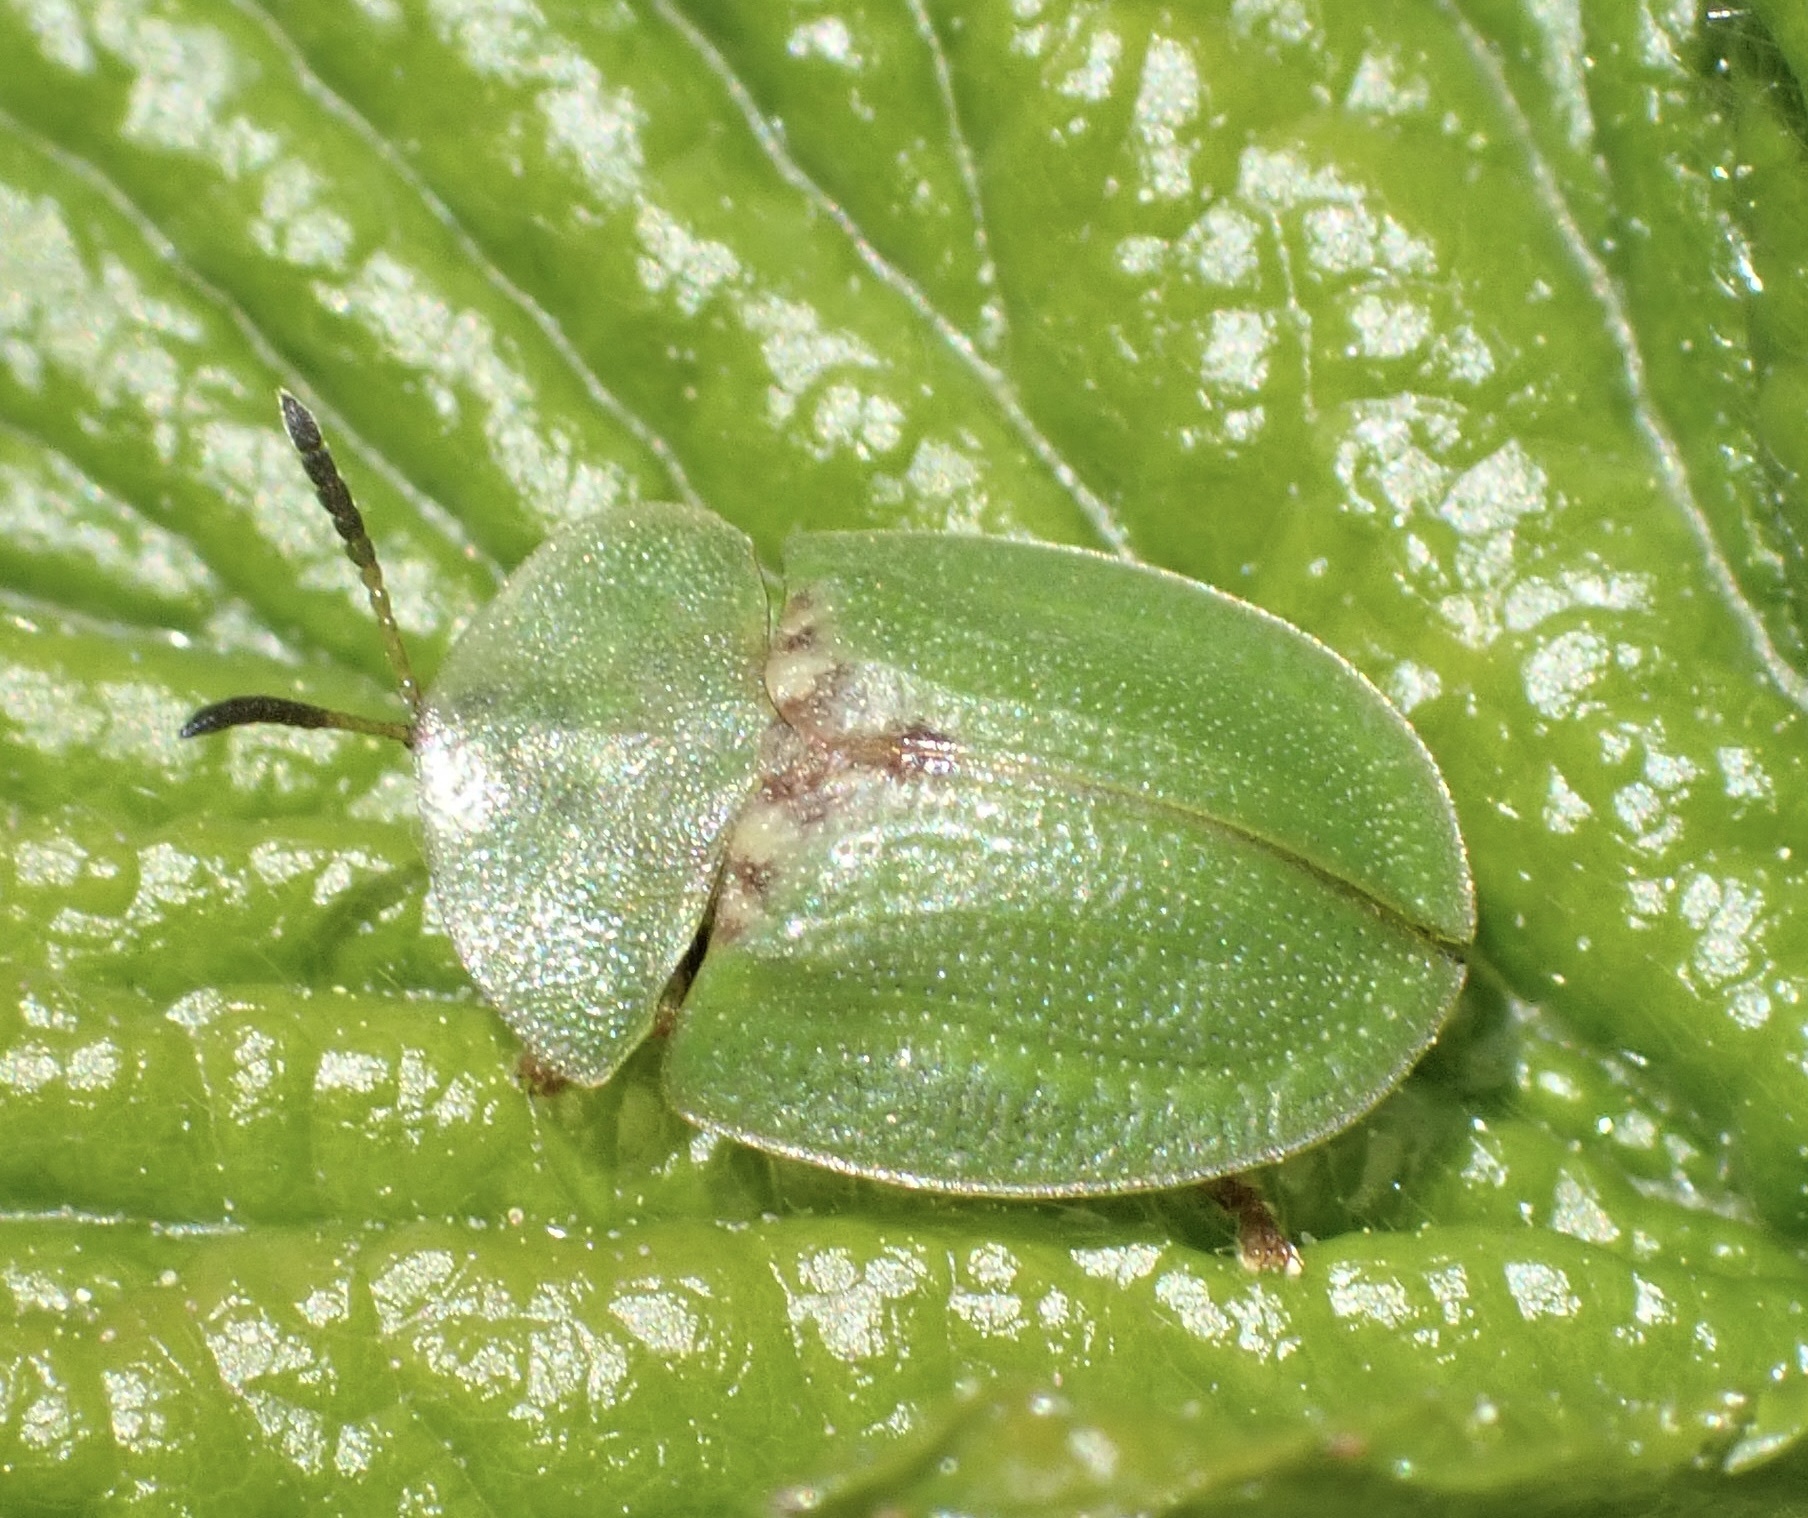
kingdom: Animalia
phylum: Arthropoda
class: Insecta
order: Coleoptera
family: Chrysomelidae
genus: Cassida
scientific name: Cassida rubiginosa
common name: Thistle tortoise beetle
